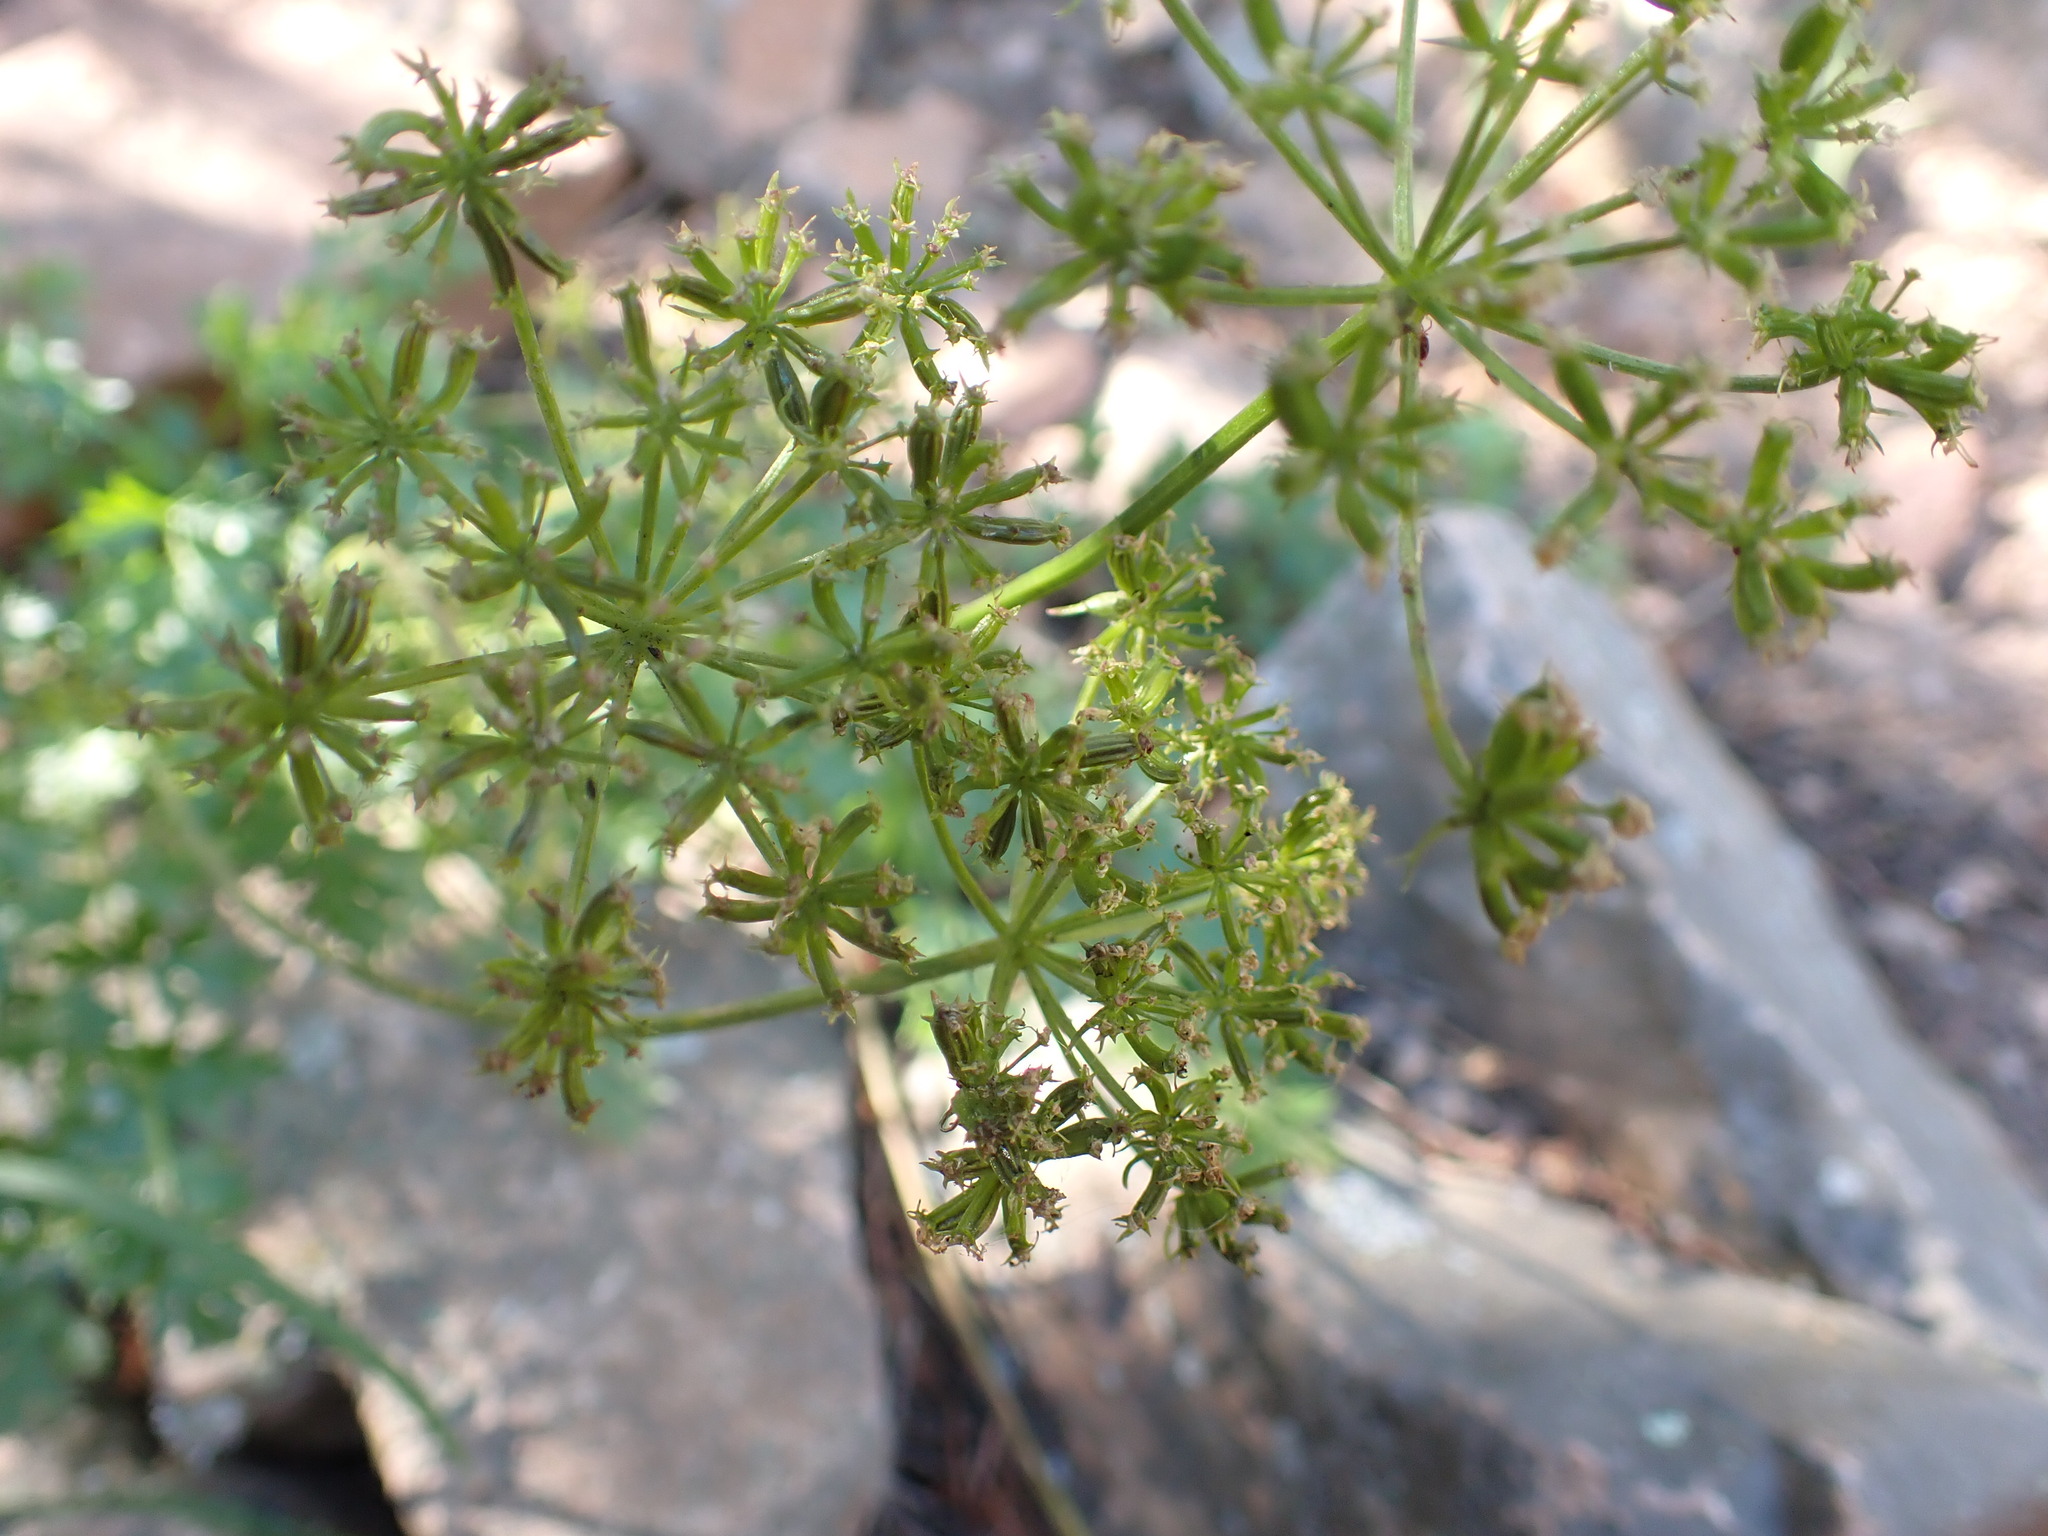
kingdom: Plantae
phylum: Tracheophyta
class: Magnoliopsida
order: Apiales
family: Apiaceae
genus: Cymopterus
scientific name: Cymopterus lemmonii
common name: Lemmon's spring-parsley
